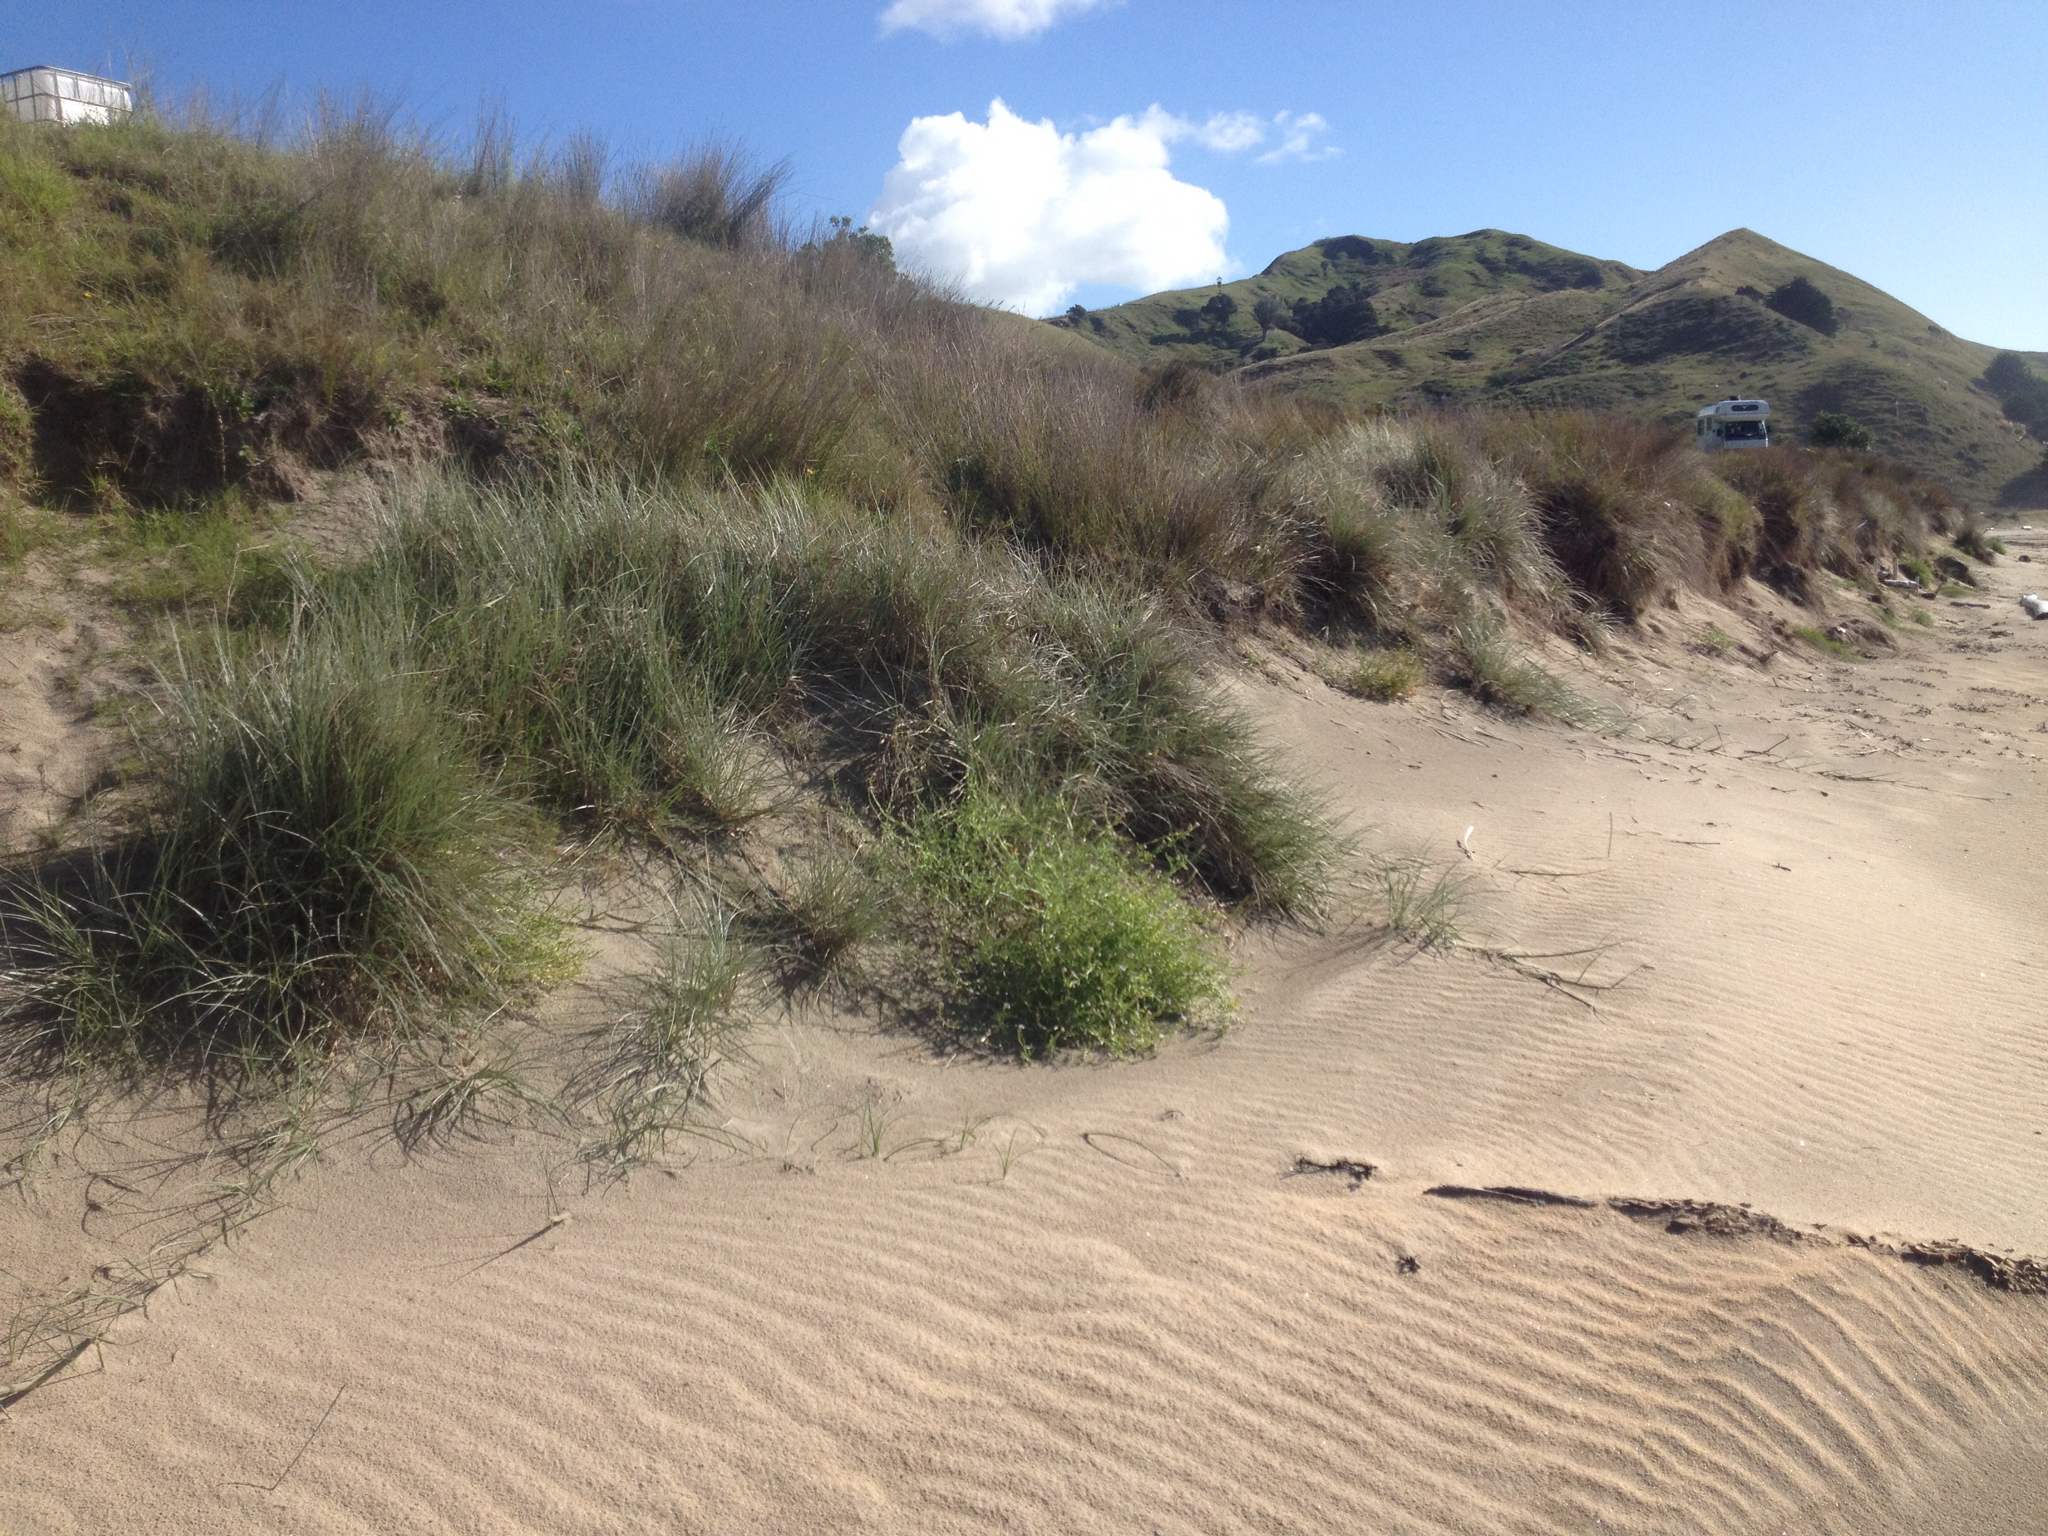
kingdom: Plantae
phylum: Tracheophyta
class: Liliopsida
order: Poales
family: Poaceae
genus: Spinifex
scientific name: Spinifex sericeus
